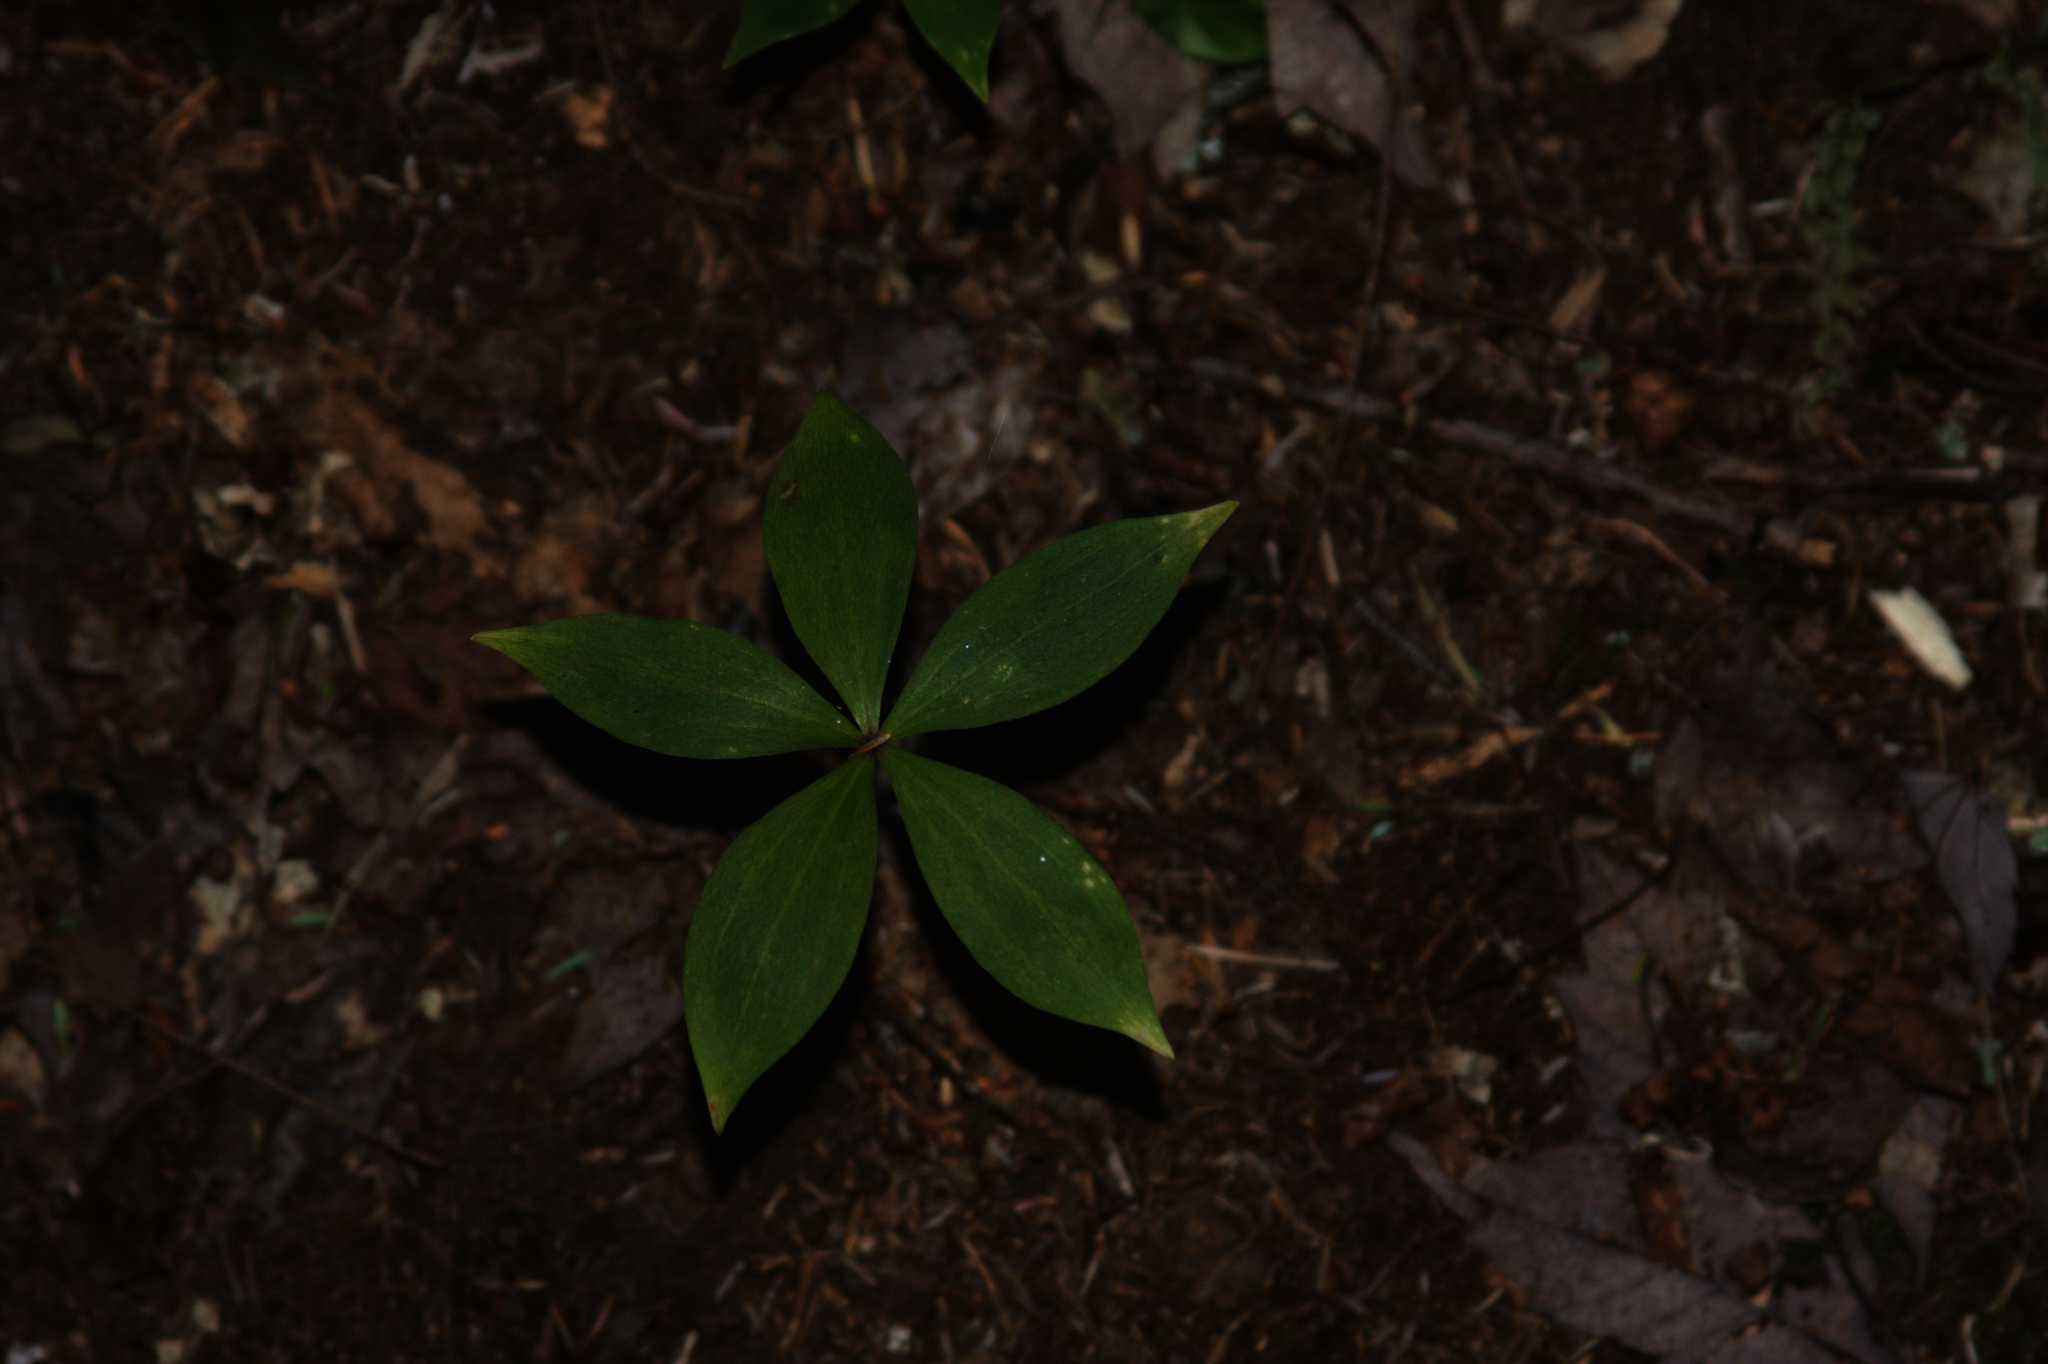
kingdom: Plantae
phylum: Tracheophyta
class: Liliopsida
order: Liliales
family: Liliaceae
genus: Medeola
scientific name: Medeola virginiana
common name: Indian cucumber-root
